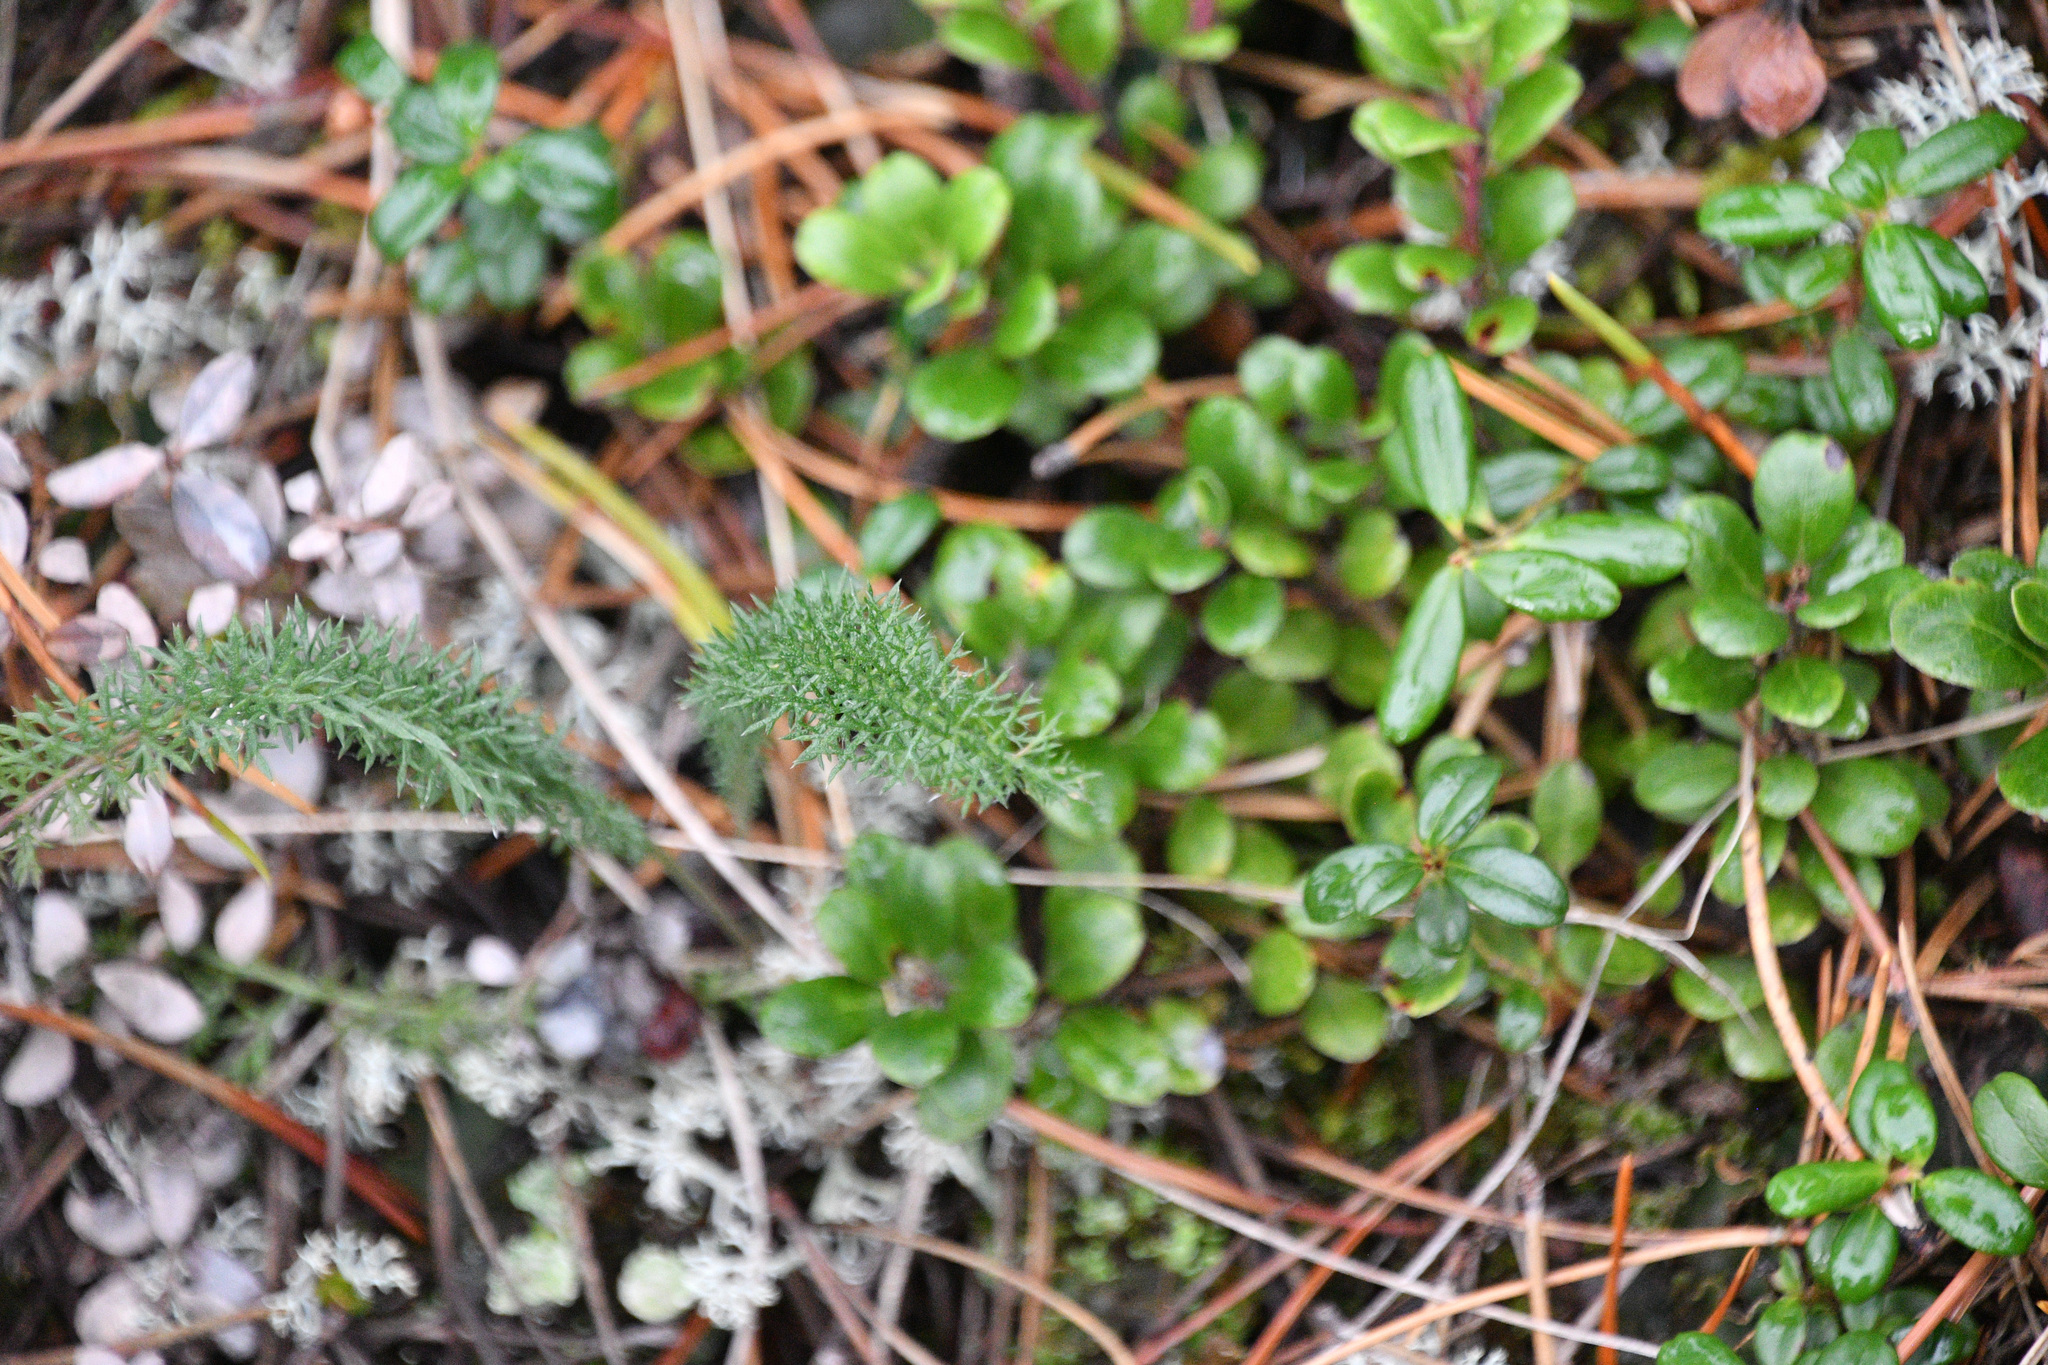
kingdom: Plantae
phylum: Tracheophyta
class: Magnoliopsida
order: Asterales
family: Asteraceae
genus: Achillea
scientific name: Achillea millefolium
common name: Yarrow
